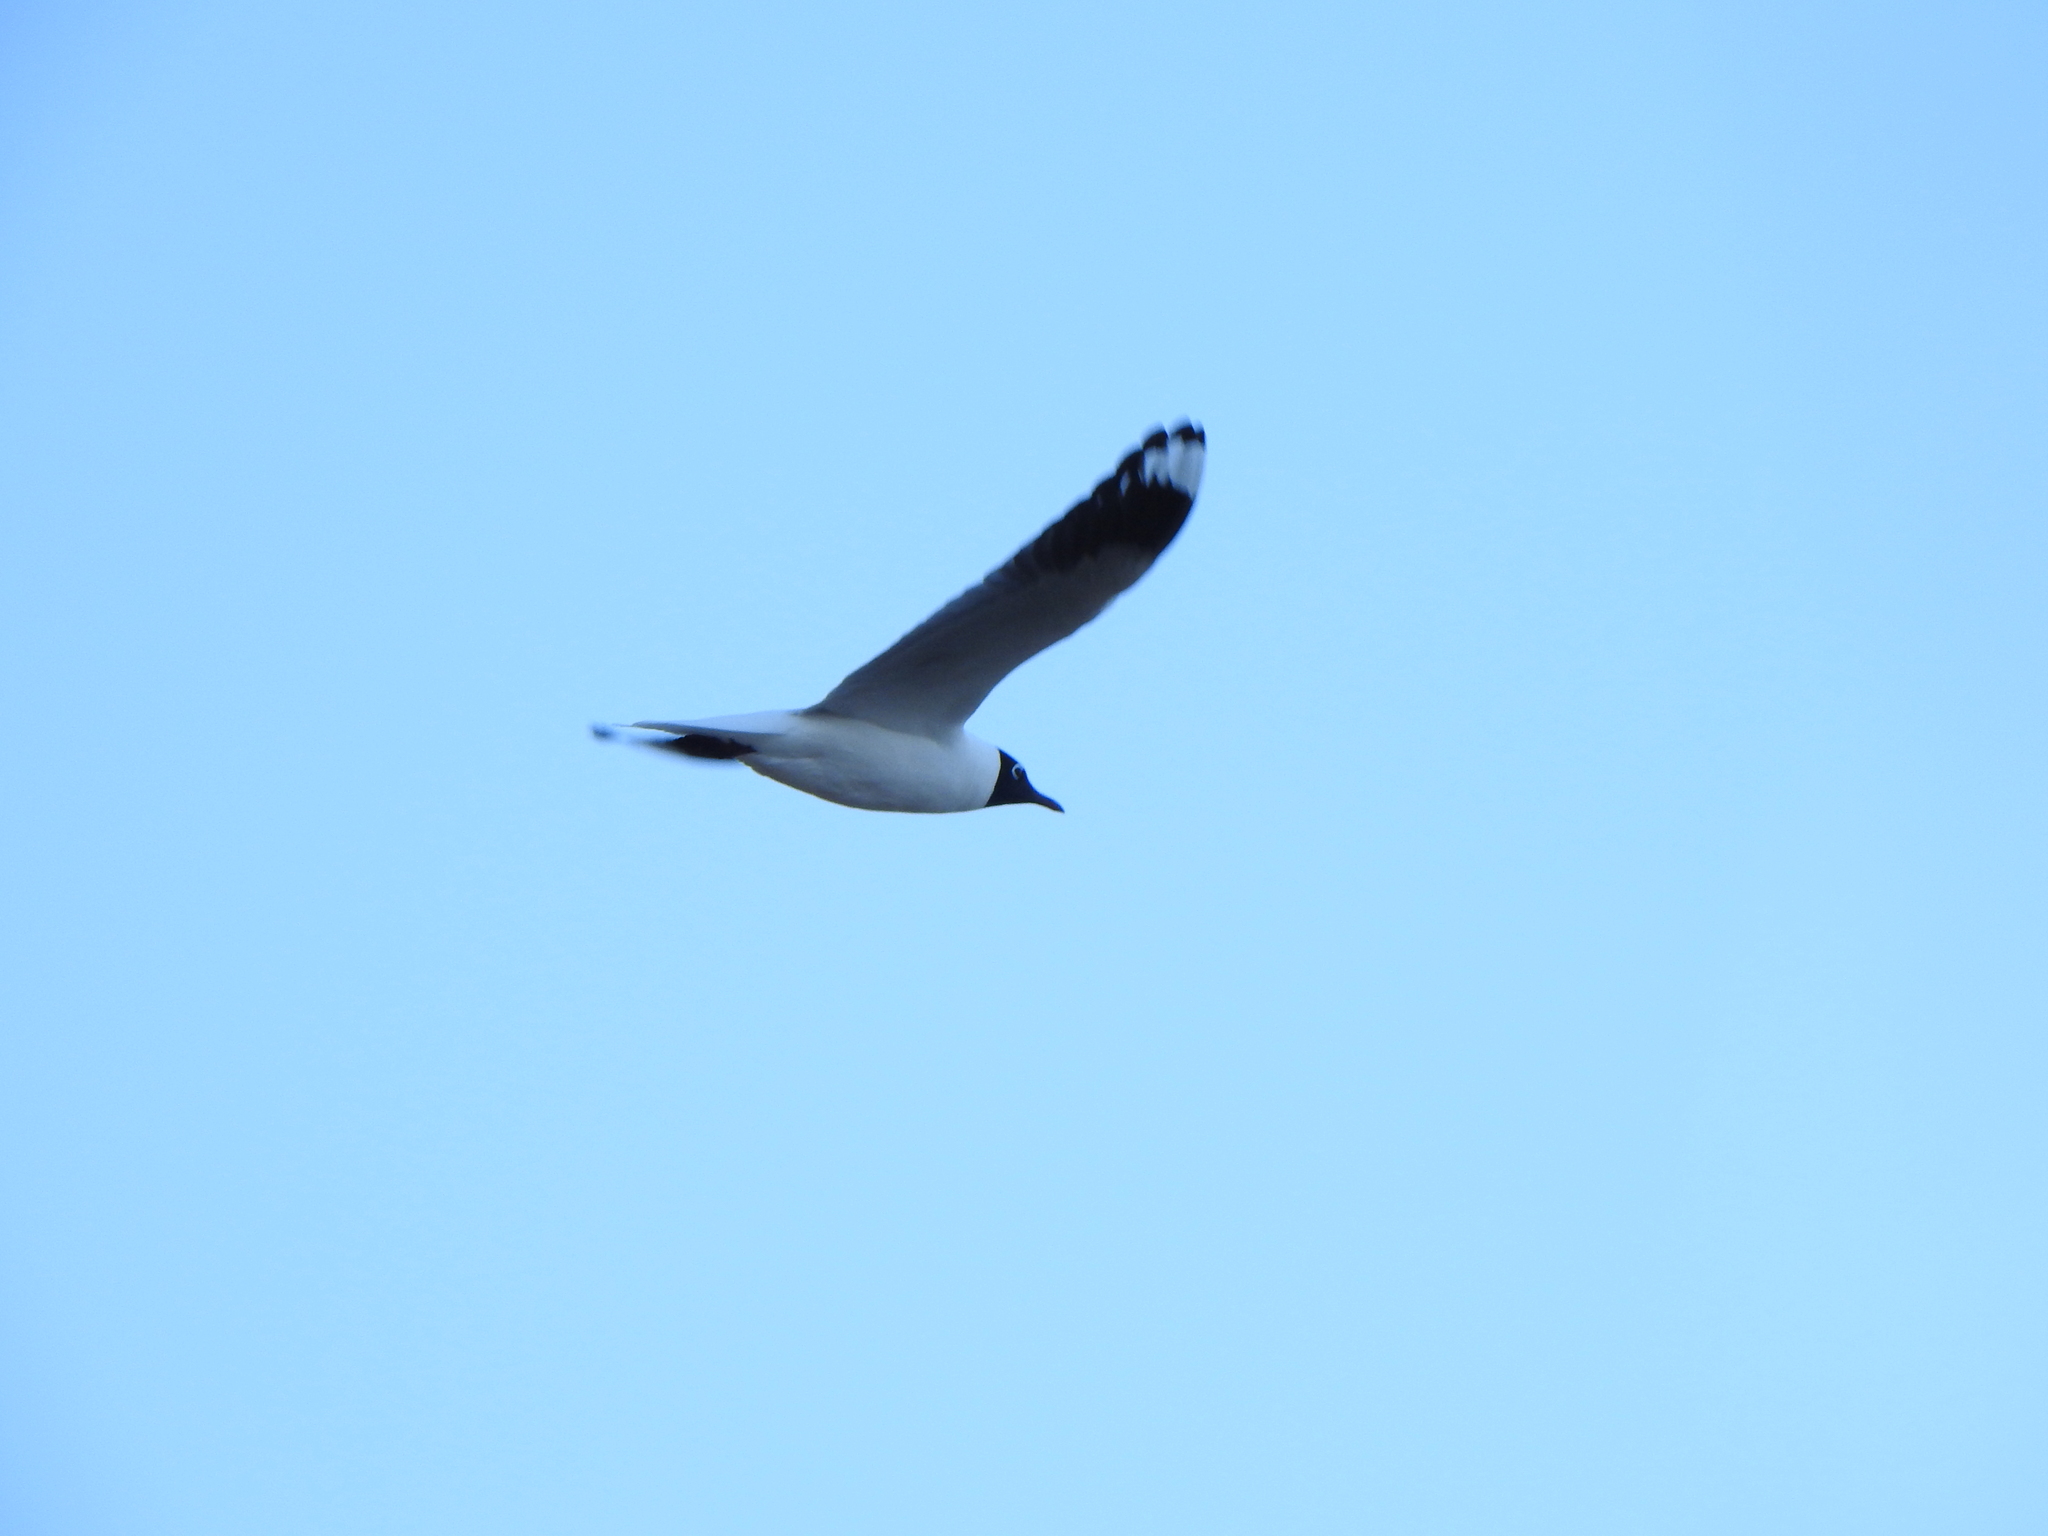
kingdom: Animalia
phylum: Chordata
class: Aves
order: Charadriiformes
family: Laridae
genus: Chroicocephalus
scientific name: Chroicocephalus serranus
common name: Andean gull
